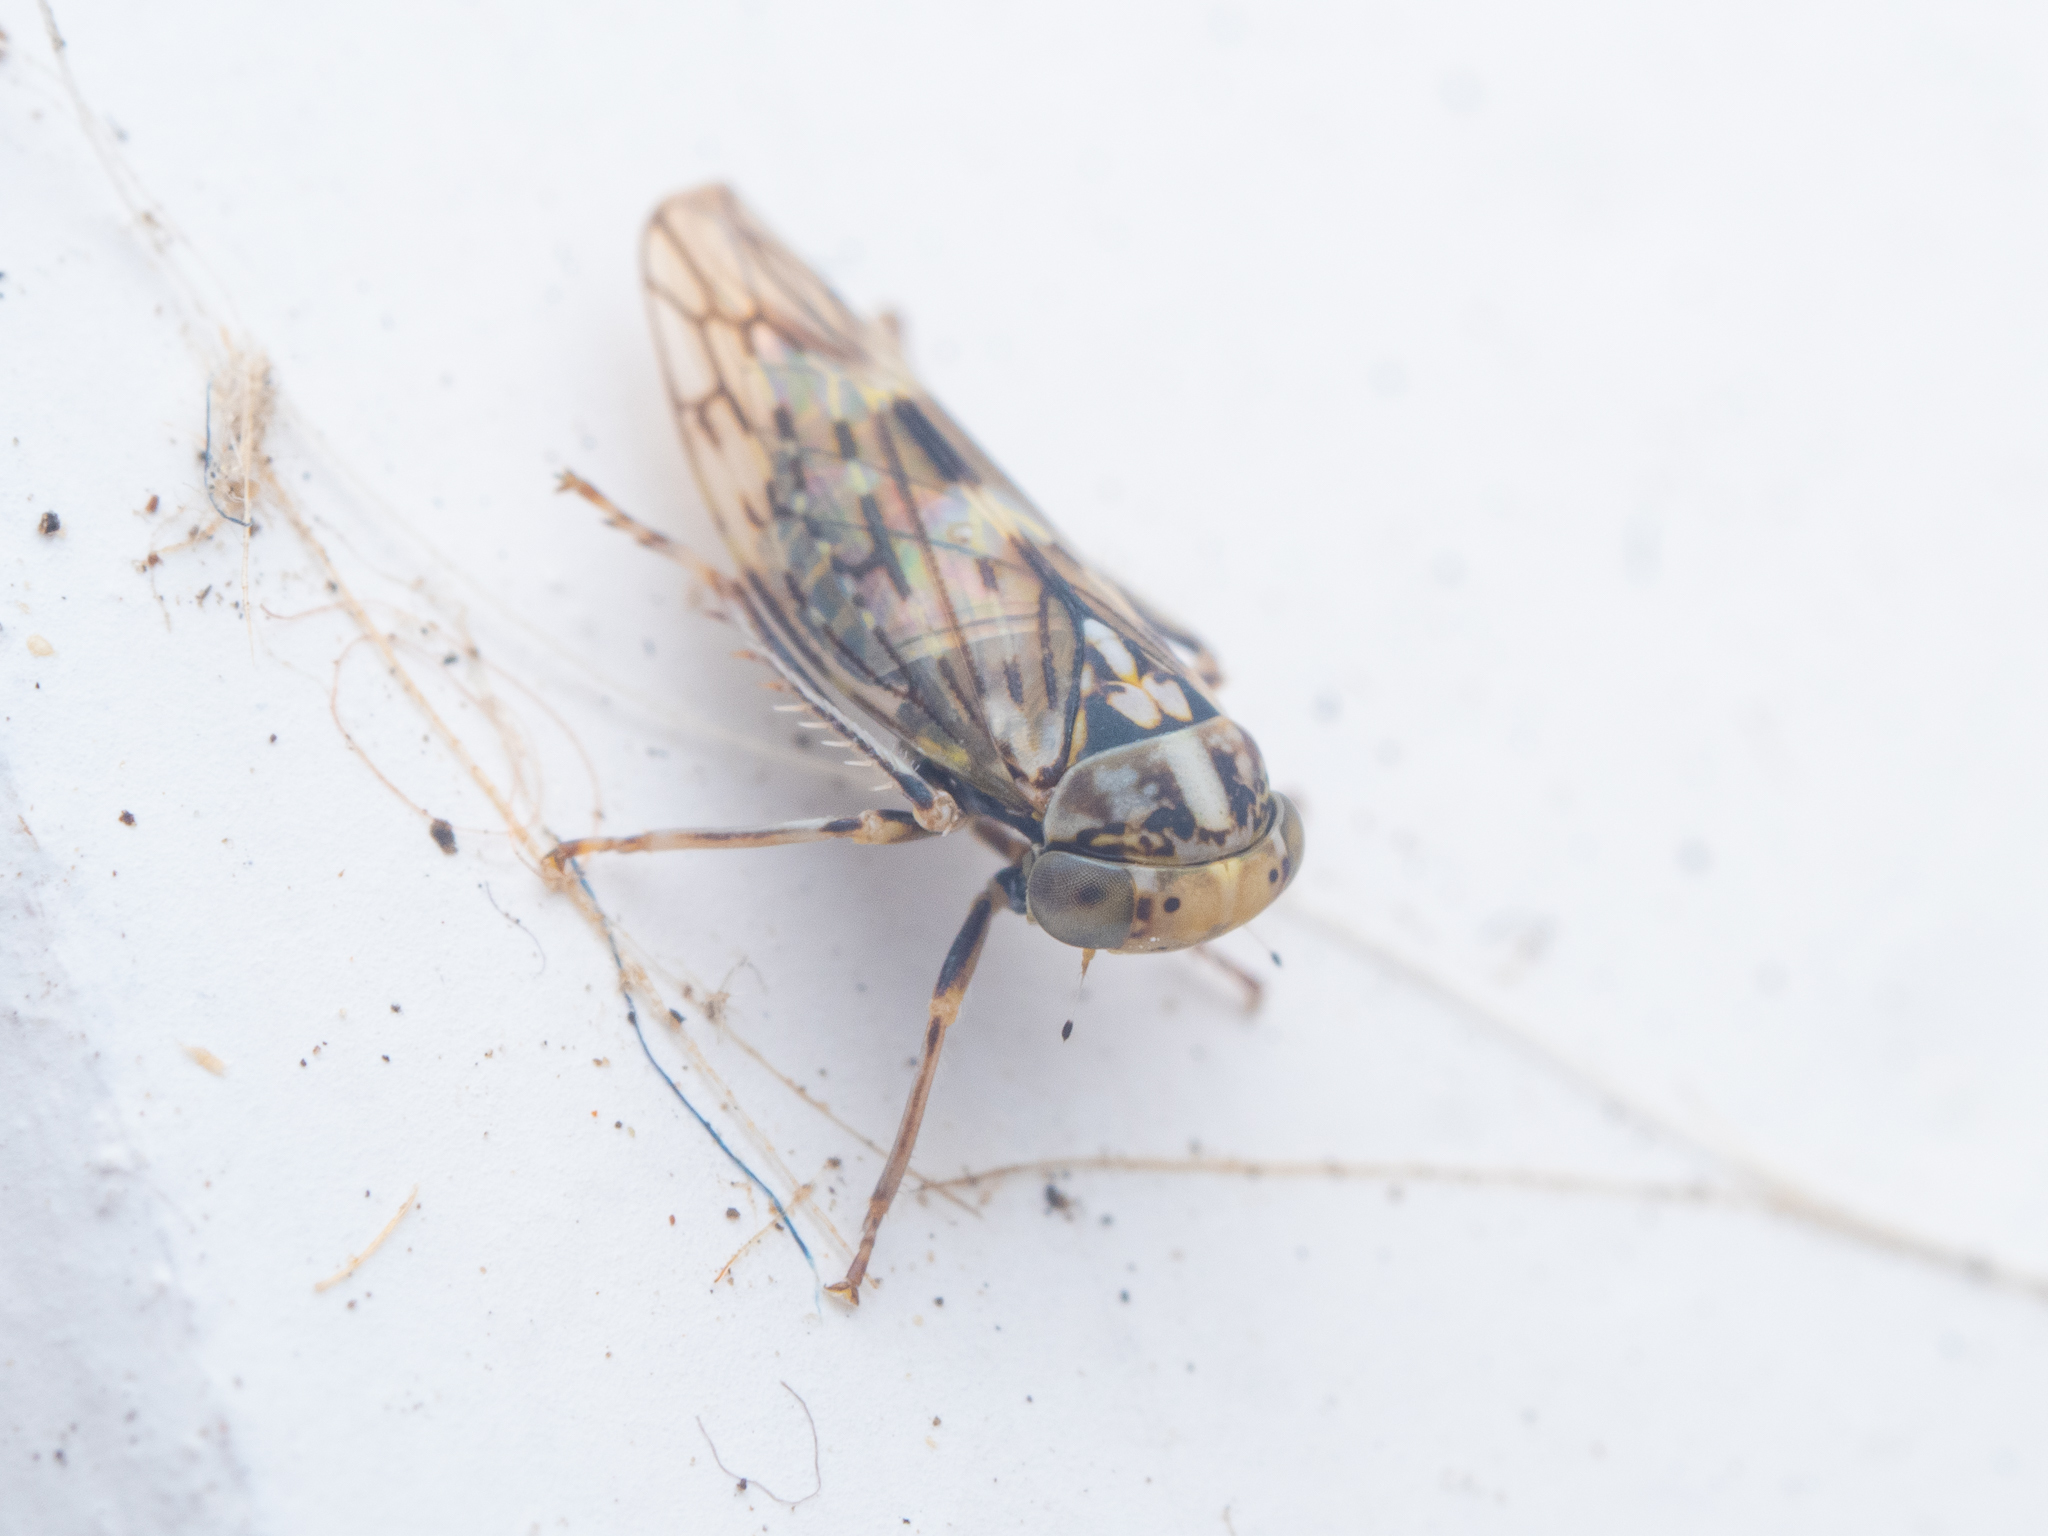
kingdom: Animalia
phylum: Arthropoda
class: Insecta
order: Hemiptera
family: Cicadellidae
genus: Metidiocerus
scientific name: Metidiocerus poecilus
